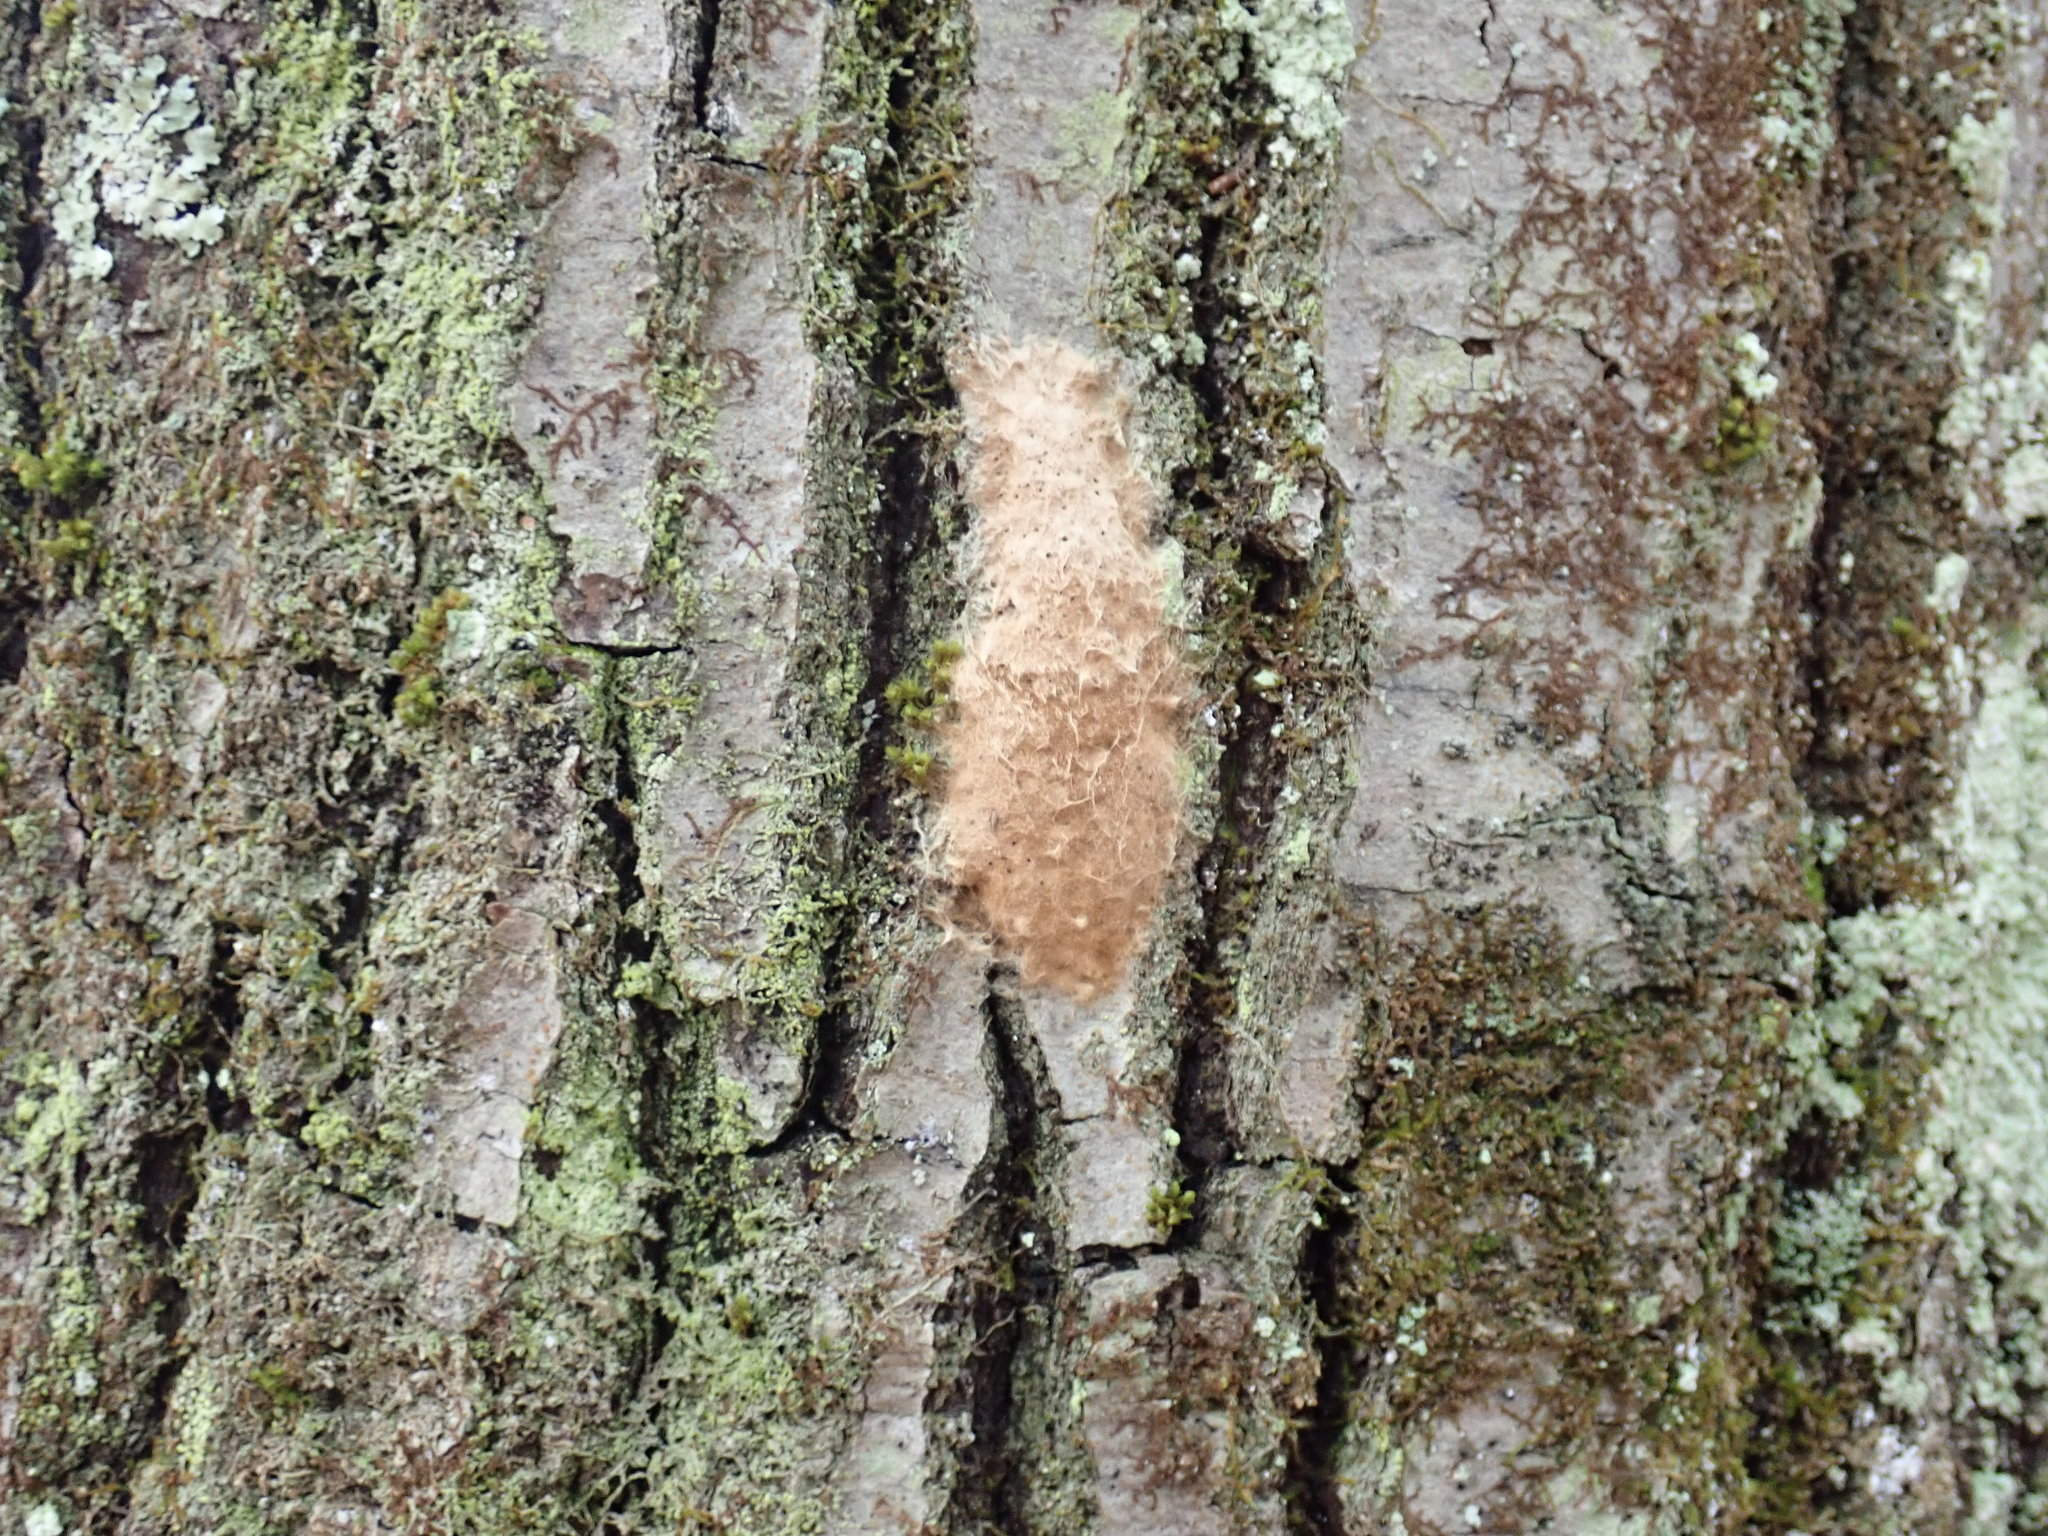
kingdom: Animalia
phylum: Arthropoda
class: Insecta
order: Lepidoptera
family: Erebidae
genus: Lymantria
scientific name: Lymantria dispar
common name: Gypsy moth
